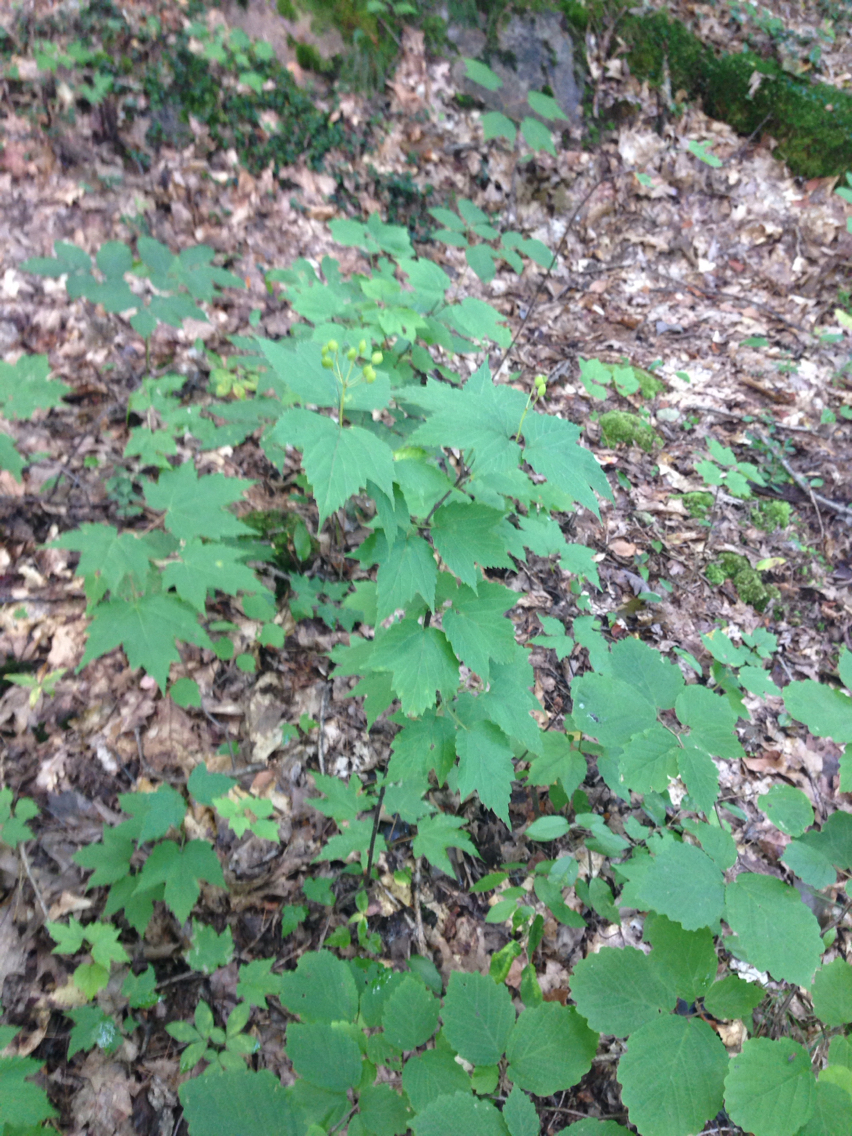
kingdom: Plantae
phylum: Tracheophyta
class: Magnoliopsida
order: Dipsacales
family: Viburnaceae
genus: Viburnum
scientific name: Viburnum acerifolium
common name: Dockmackie
